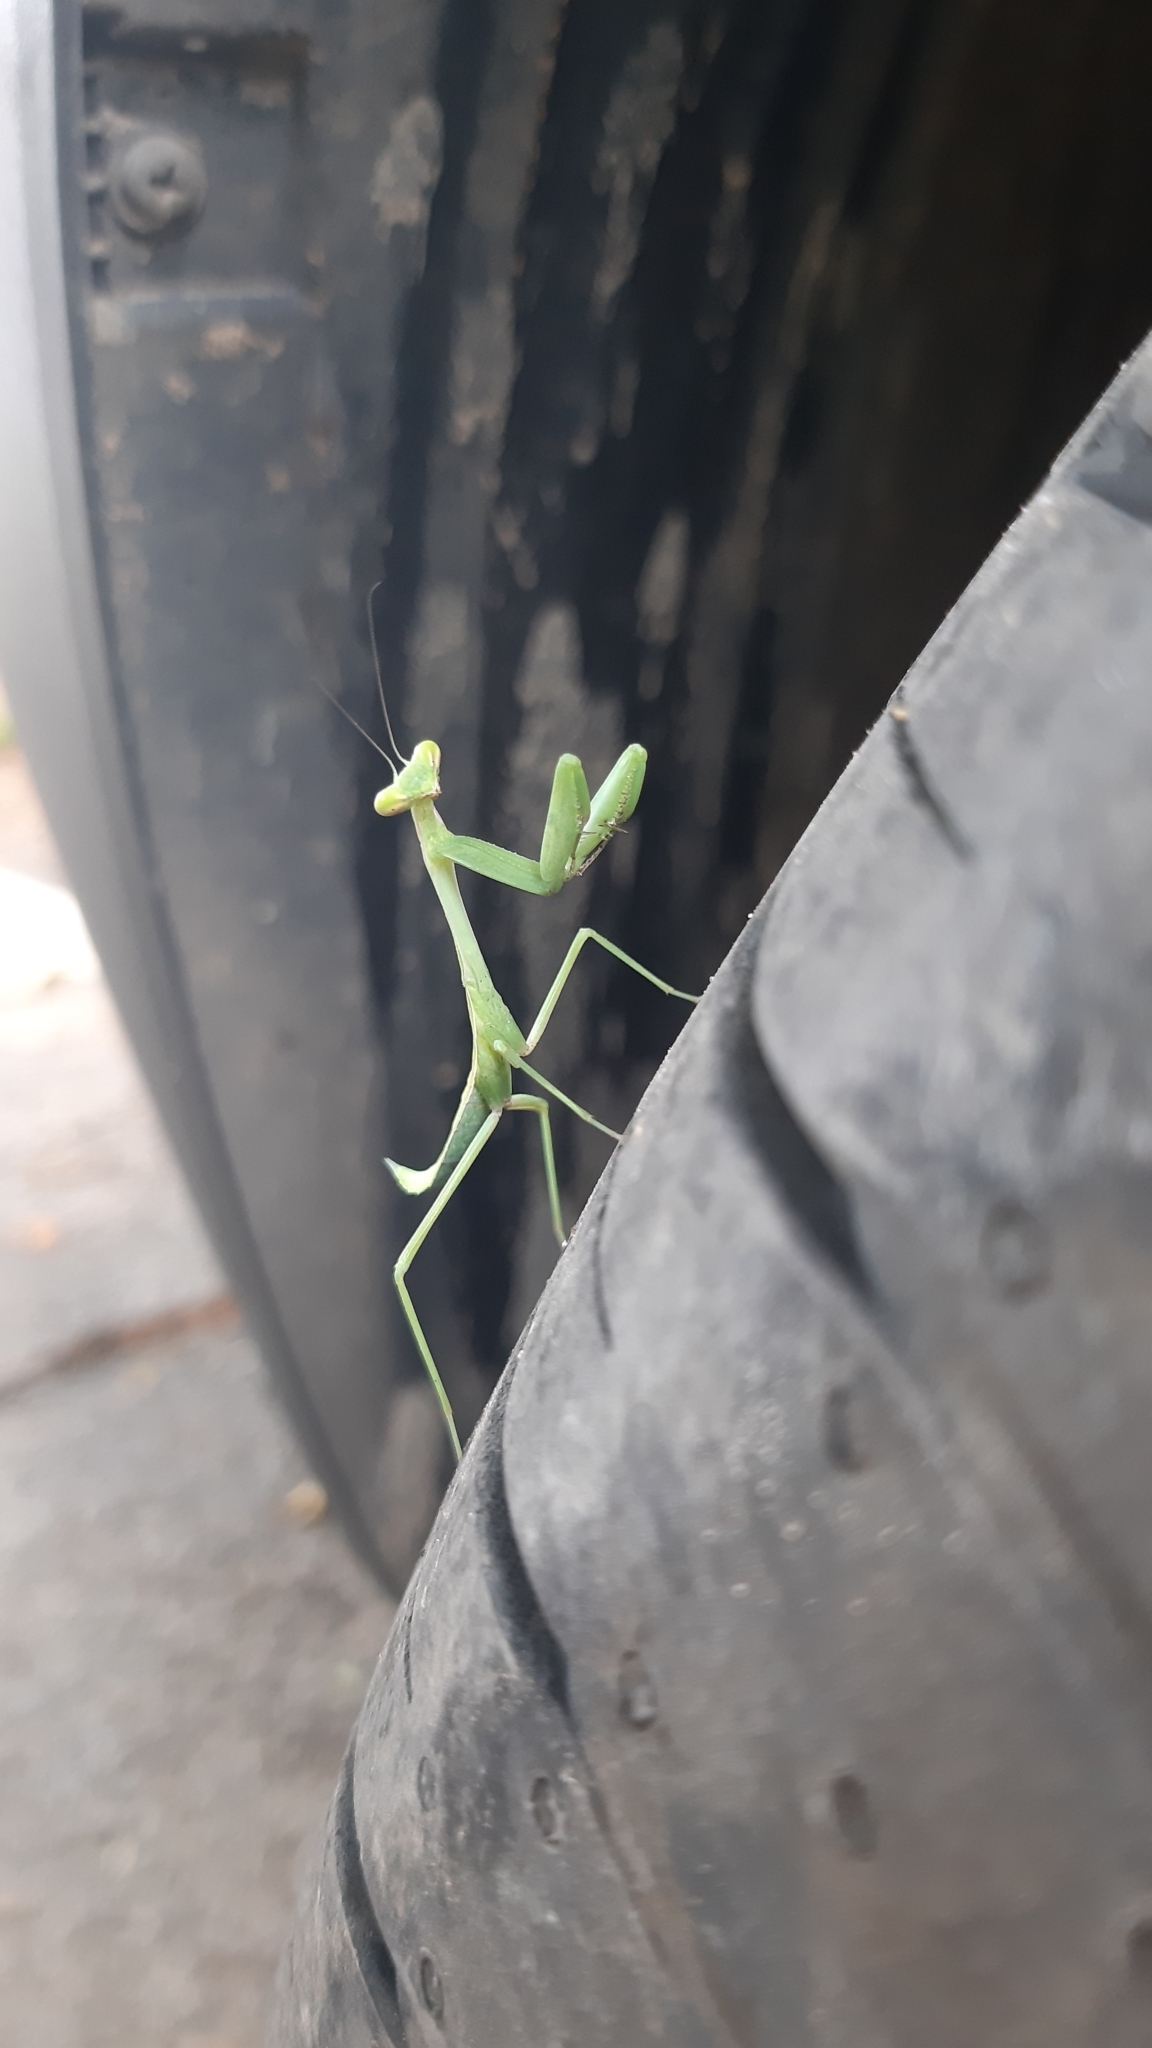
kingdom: Animalia
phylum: Arthropoda
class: Insecta
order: Mantodea
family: Mantidae
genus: Hierodula
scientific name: Hierodula membranacea
